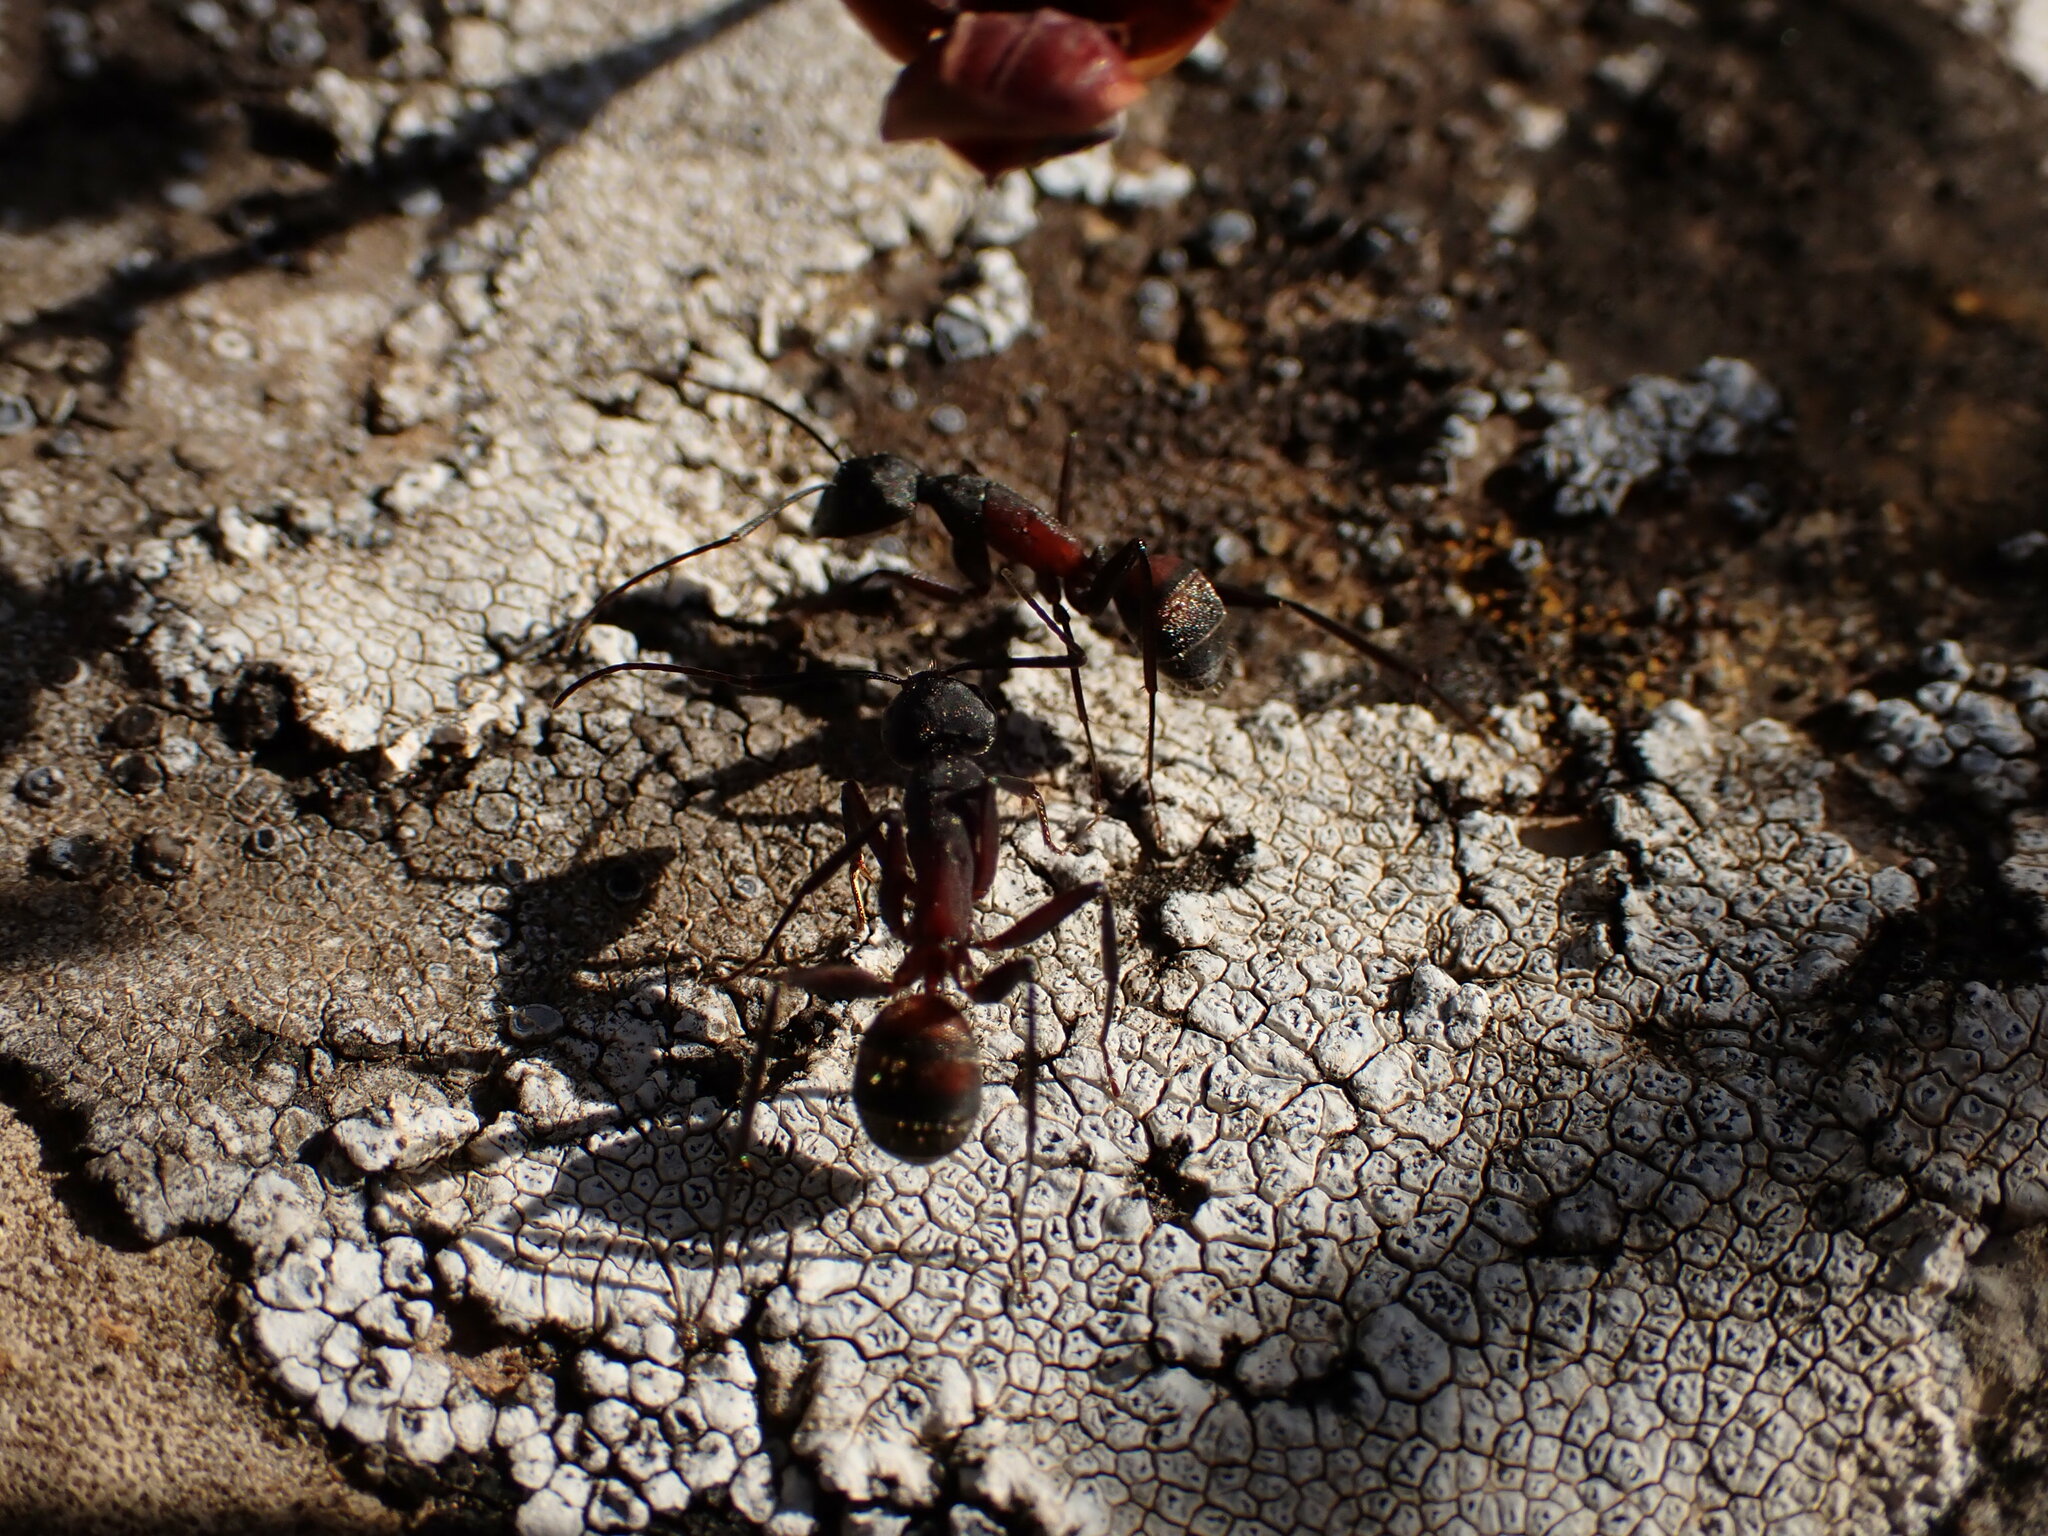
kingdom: Animalia
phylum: Arthropoda
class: Insecta
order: Hymenoptera
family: Formicidae
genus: Camponotus
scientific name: Camponotus cruentatus
